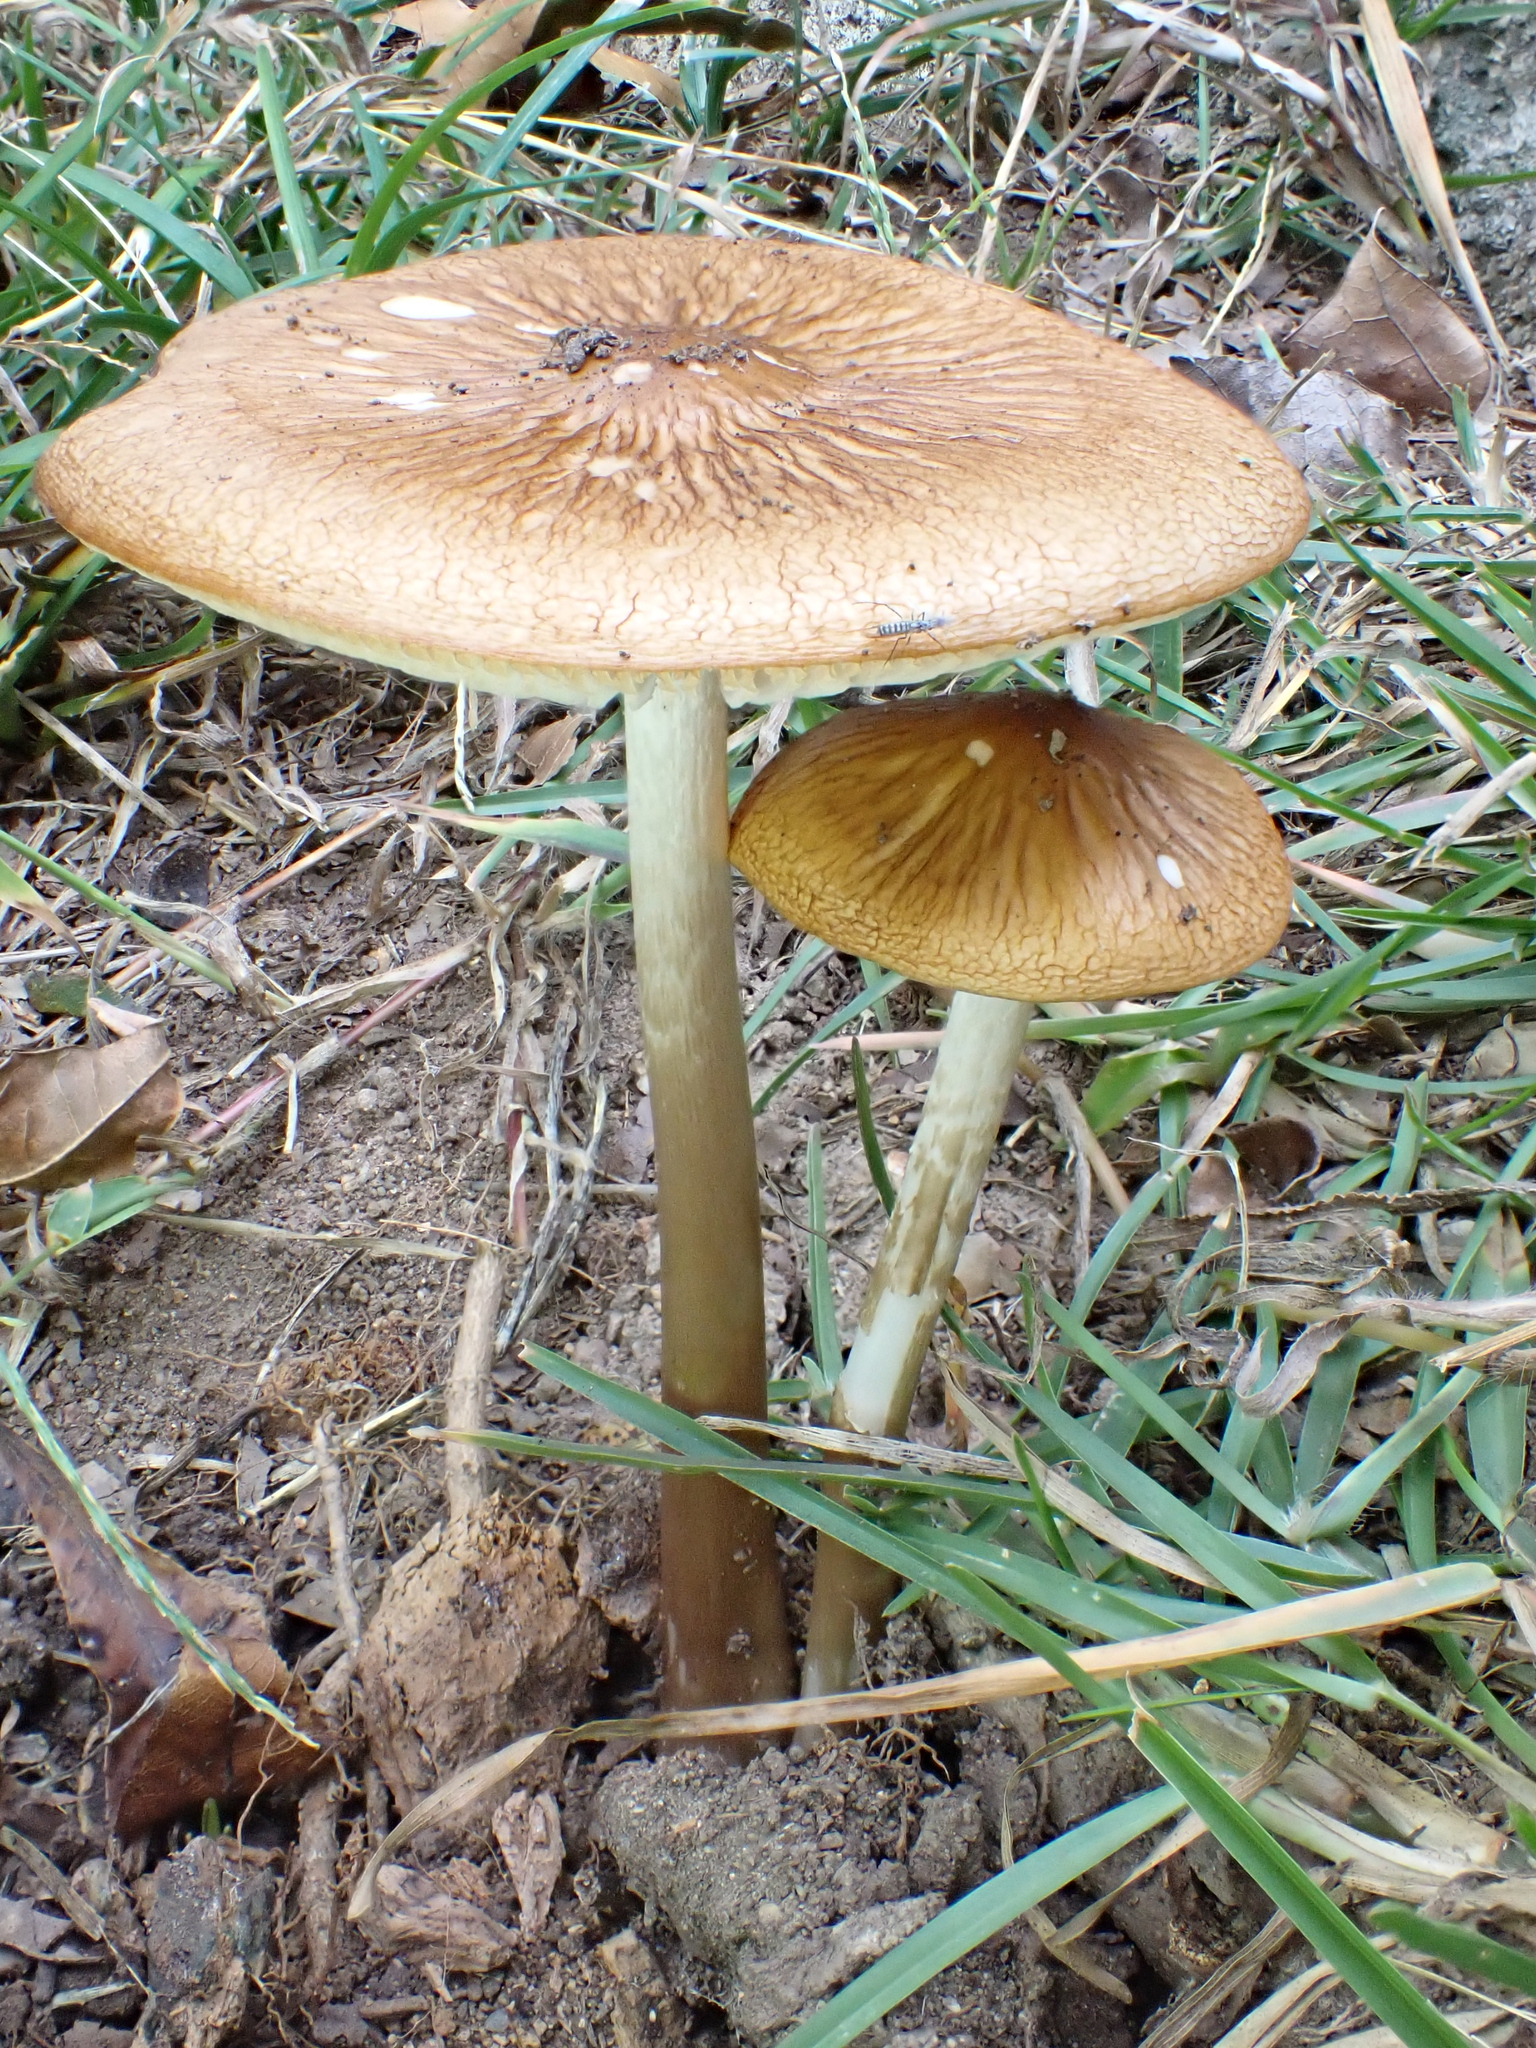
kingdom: Fungi
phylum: Basidiomycota
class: Agaricomycetes
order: Agaricales
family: Physalacriaceae
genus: Hymenopellis
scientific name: Hymenopellis furfuracea
